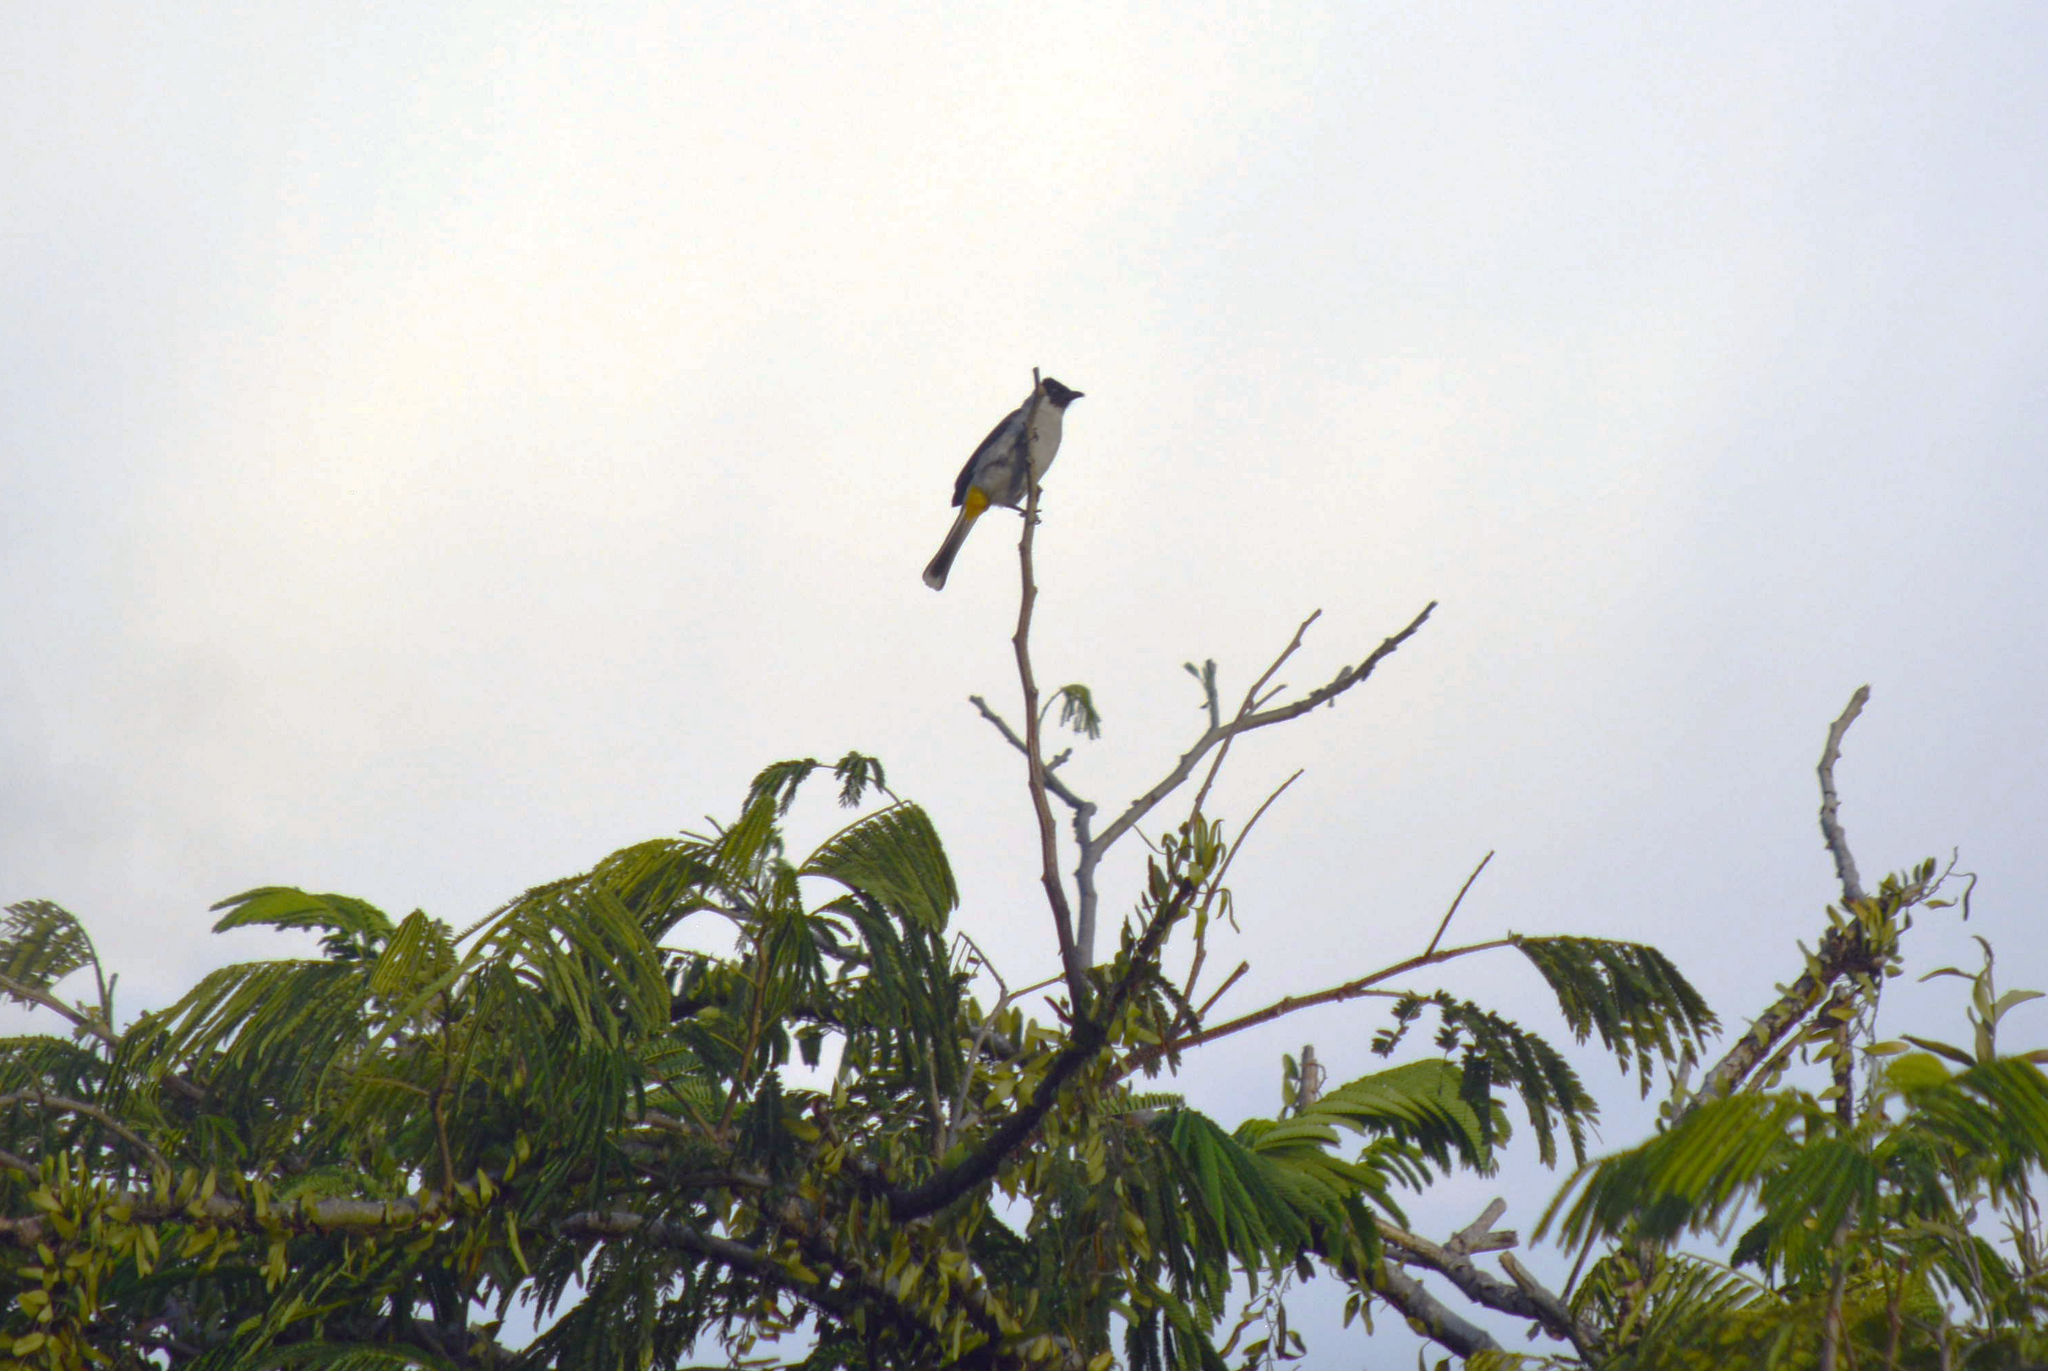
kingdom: Animalia
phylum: Chordata
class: Aves
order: Passeriformes
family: Pycnonotidae
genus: Pycnonotus
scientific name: Pycnonotus aurigaster
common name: Sooty-headed bulbul
